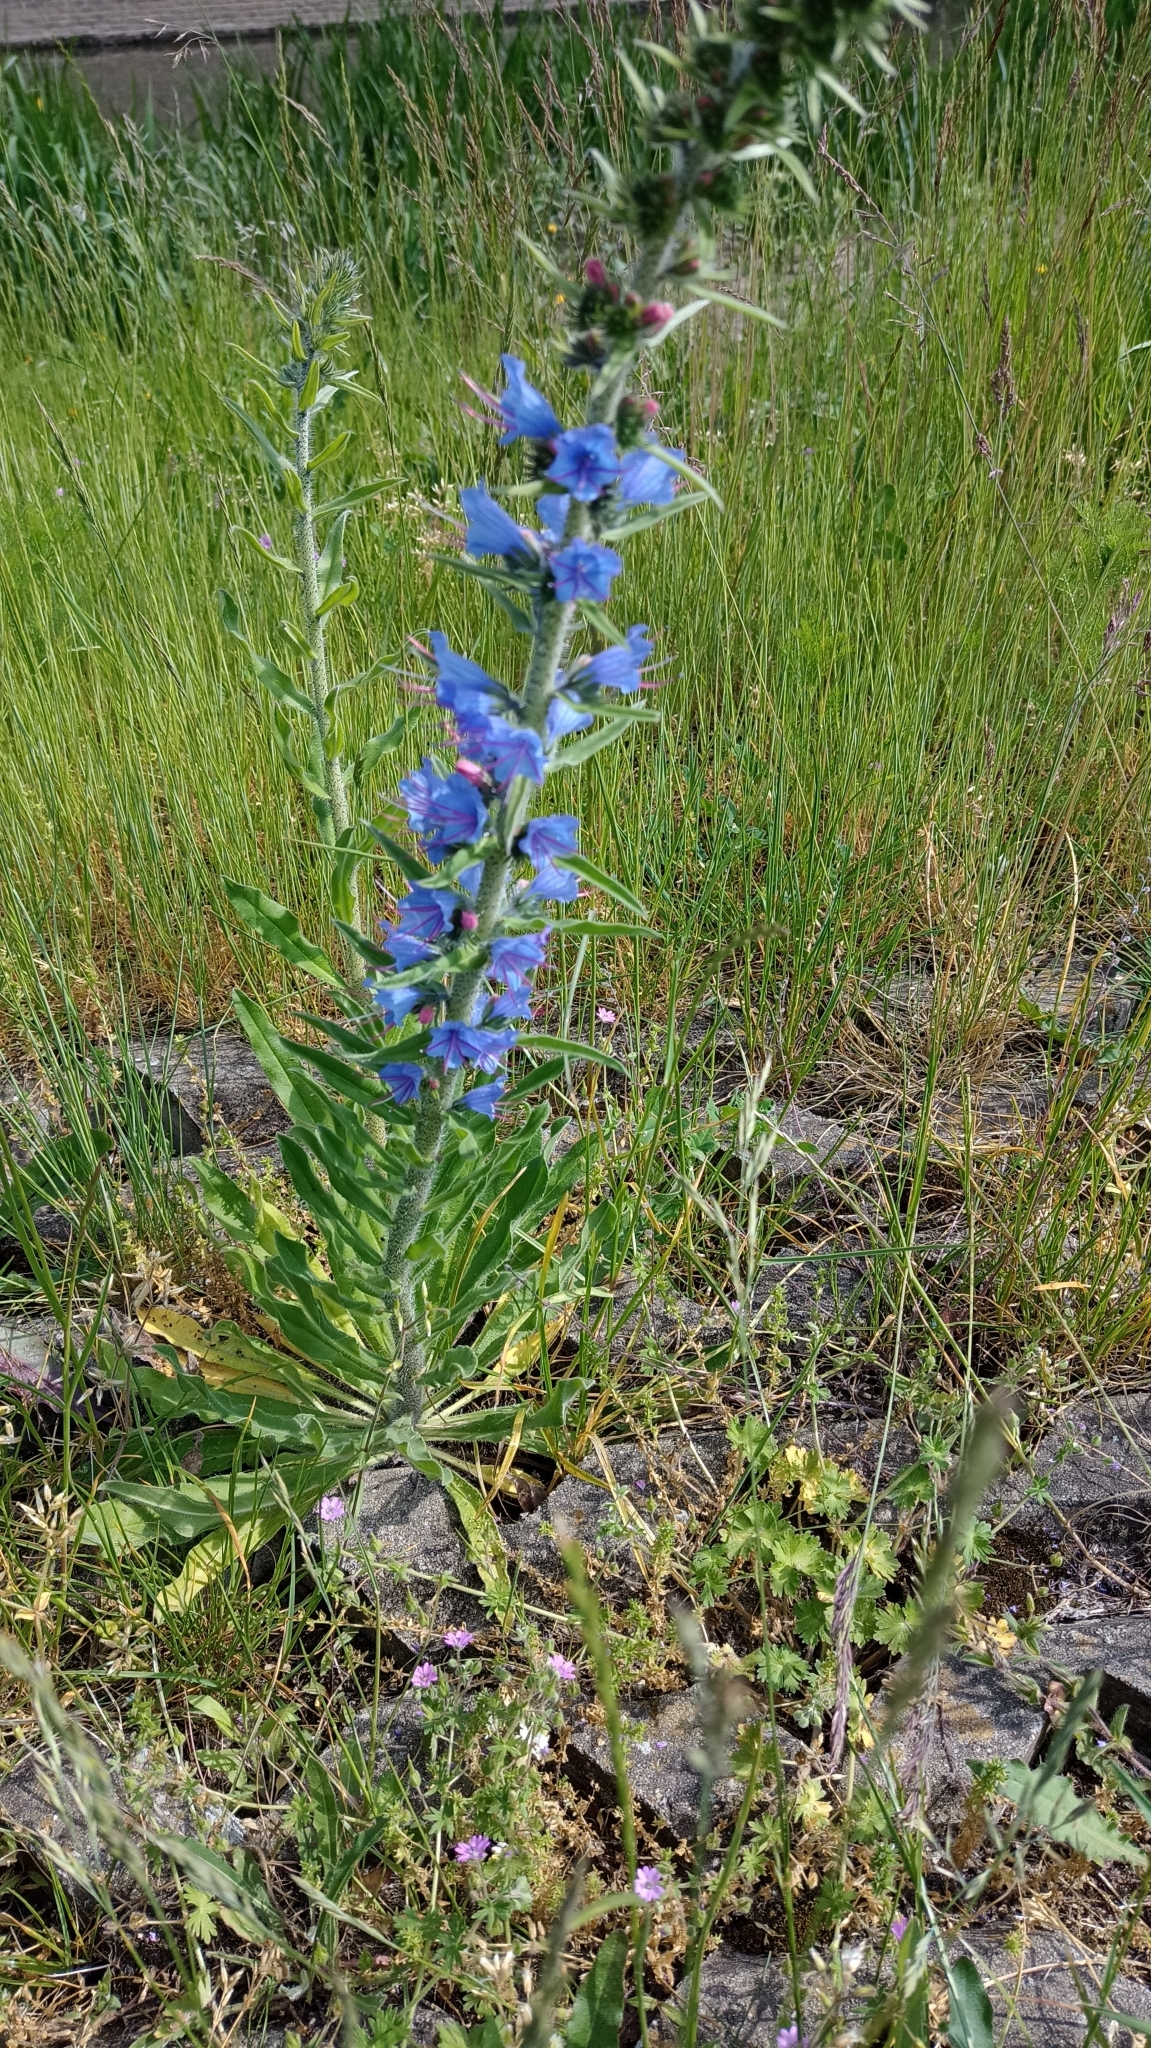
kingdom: Plantae
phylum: Tracheophyta
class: Magnoliopsida
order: Boraginales
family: Boraginaceae
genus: Echium
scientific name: Echium vulgare
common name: Common viper's bugloss
